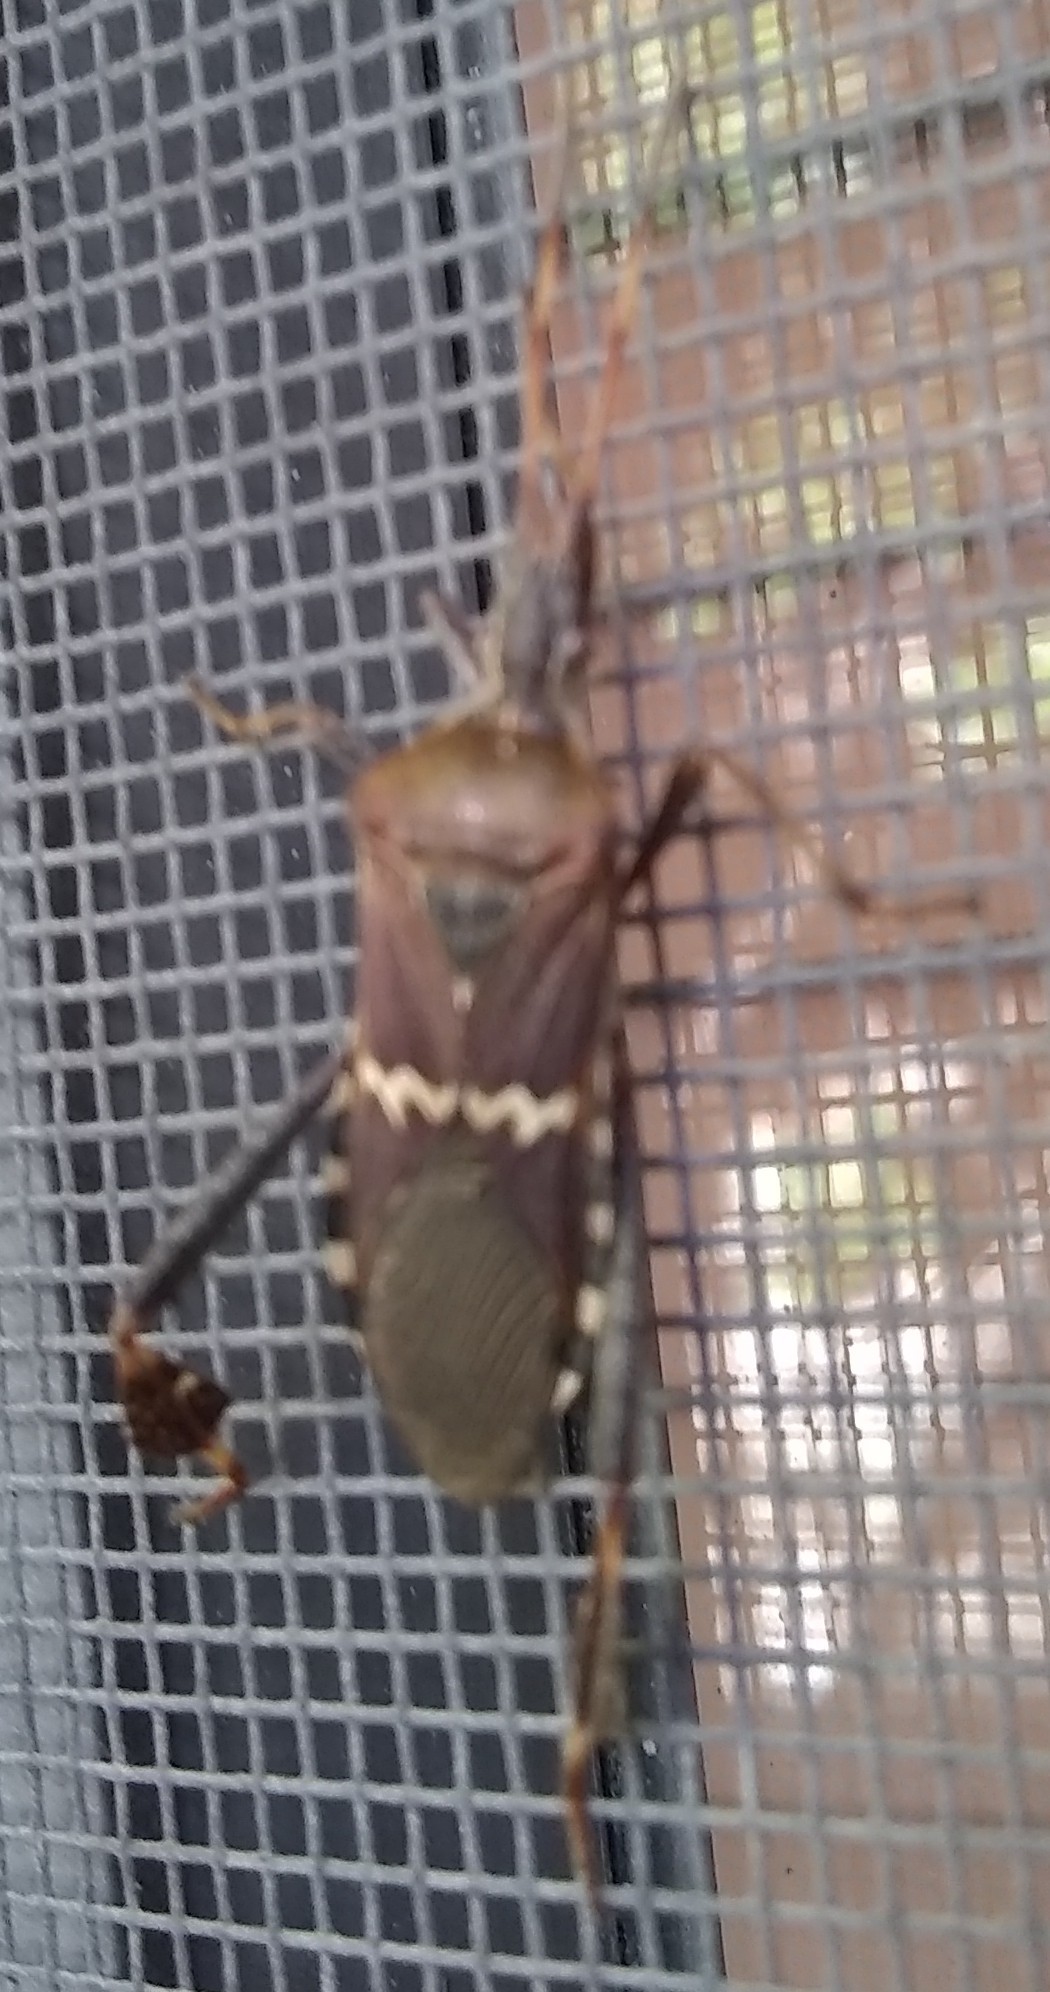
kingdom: Animalia
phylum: Arthropoda
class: Insecta
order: Hemiptera
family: Coreidae
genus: Leptoglossus
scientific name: Leptoglossus clypealis
